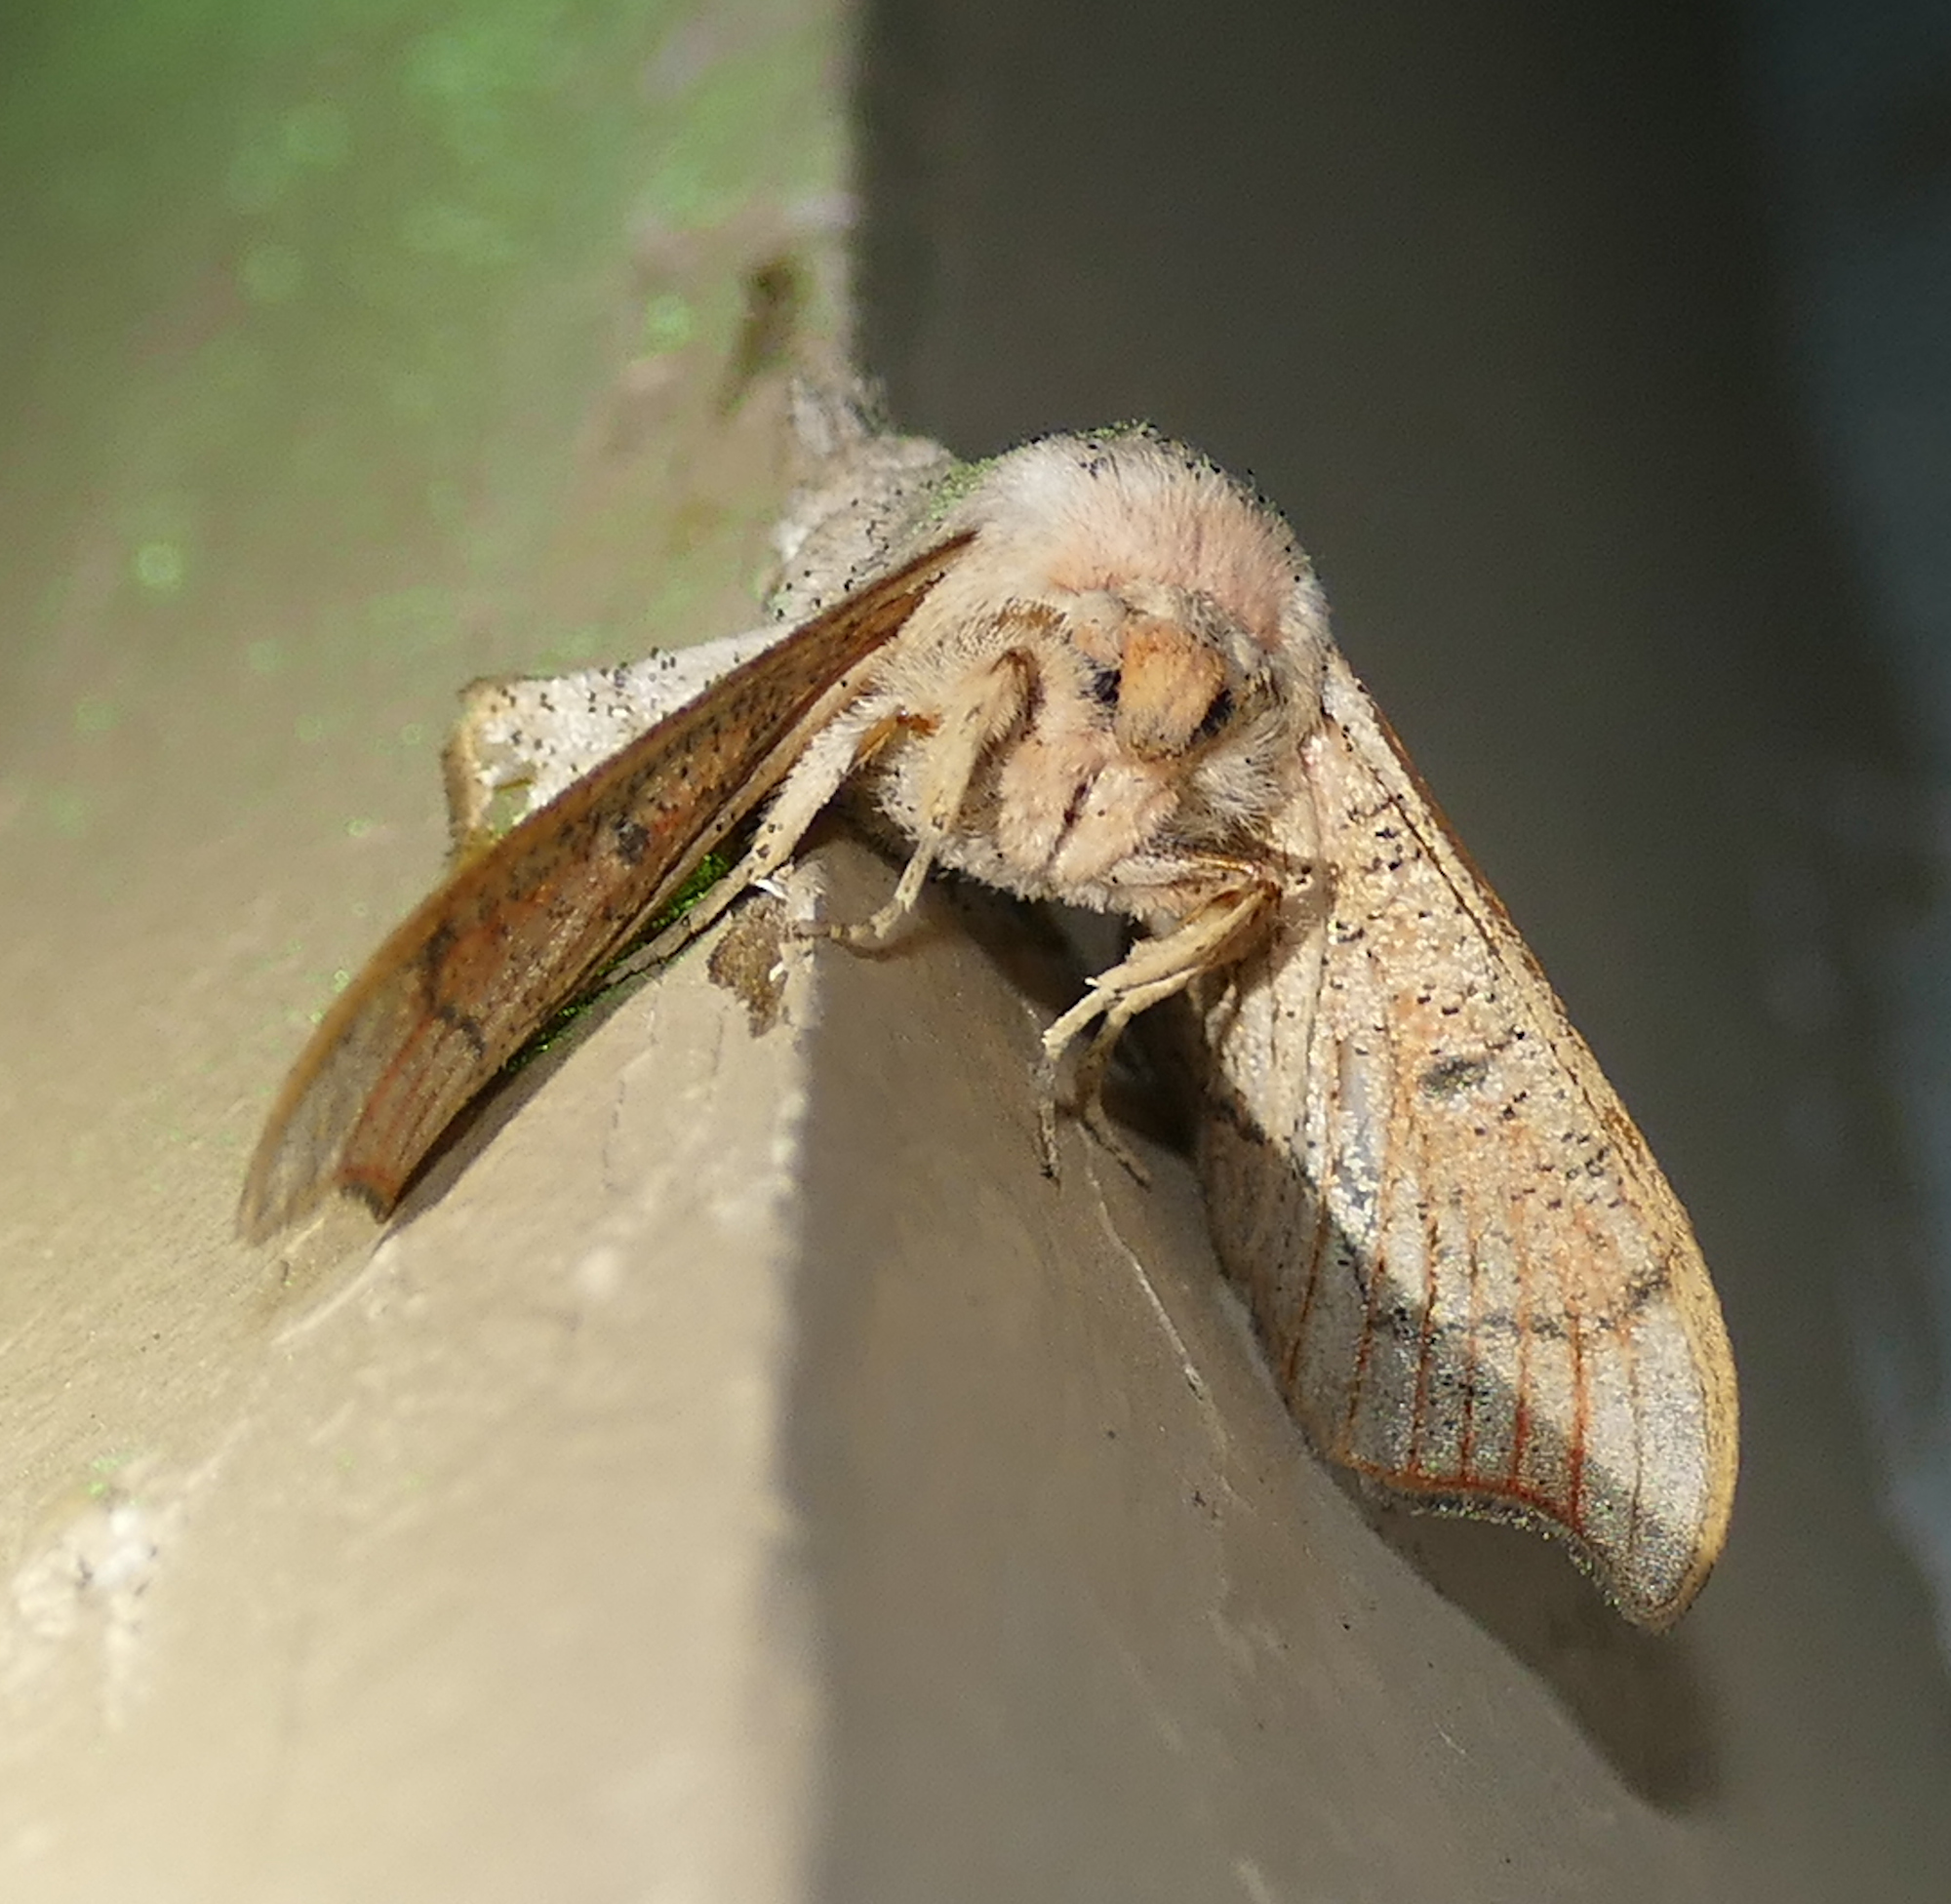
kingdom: Animalia
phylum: Arthropoda
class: Insecta
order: Lepidoptera
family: Mimallonidae
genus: Cicinnus
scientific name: Cicinnus melsheimeri
